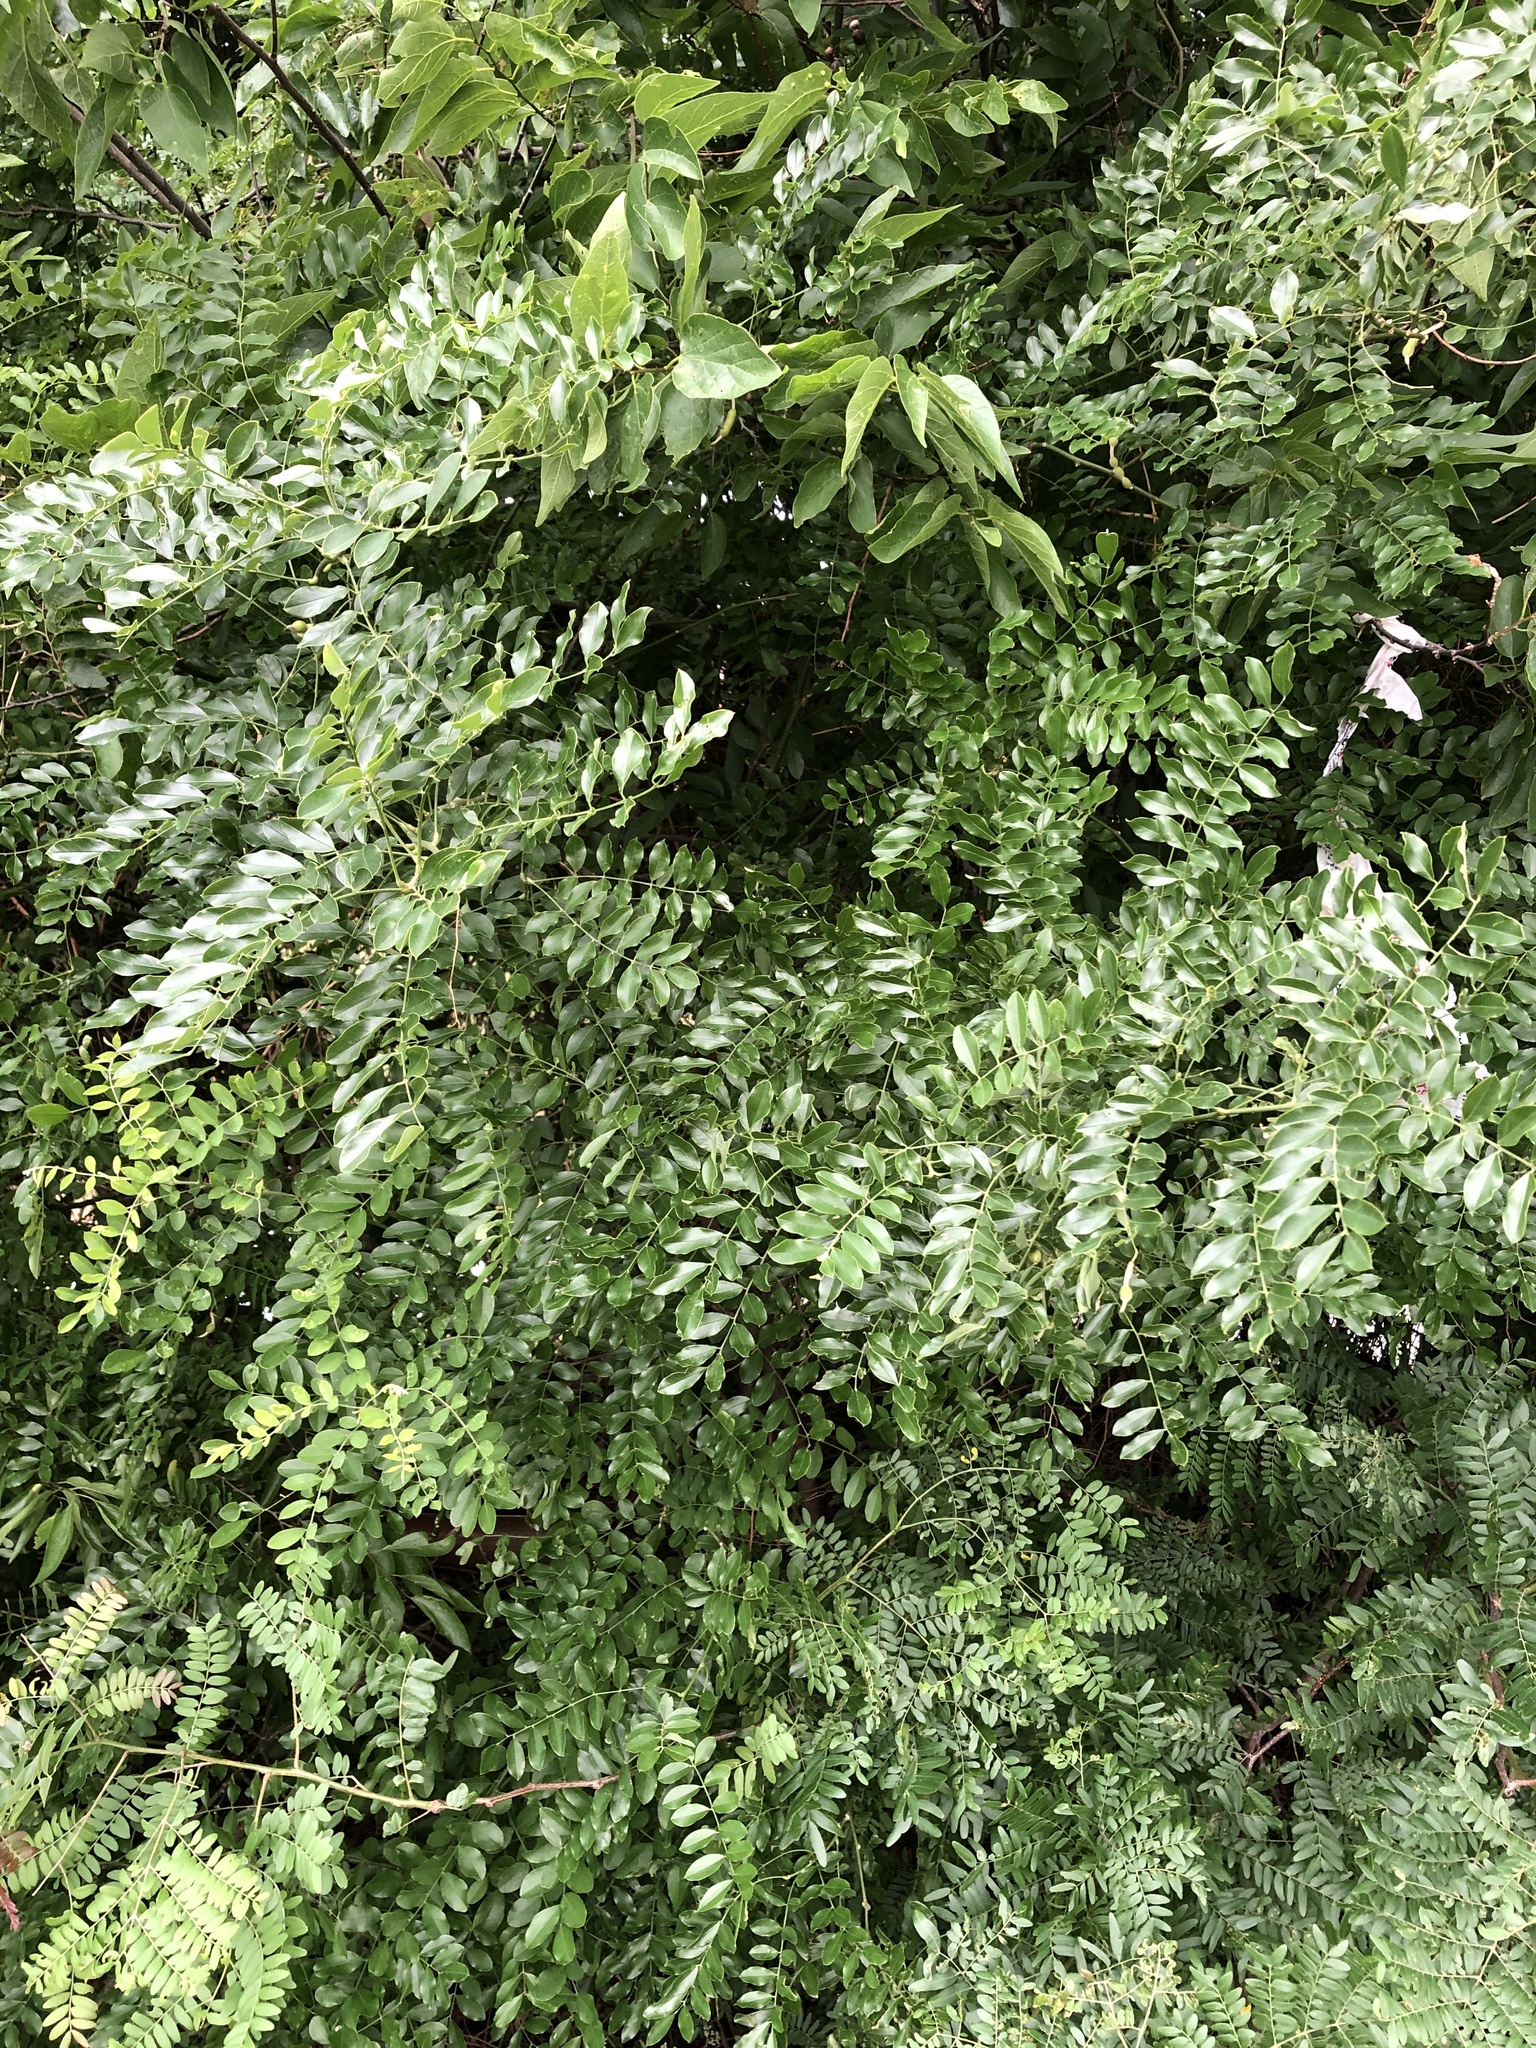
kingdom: Plantae
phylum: Tracheophyta
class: Magnoliopsida
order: Fabales
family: Fabaceae
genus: Styphnolobium
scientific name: Styphnolobium affine
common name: Texas sophora
